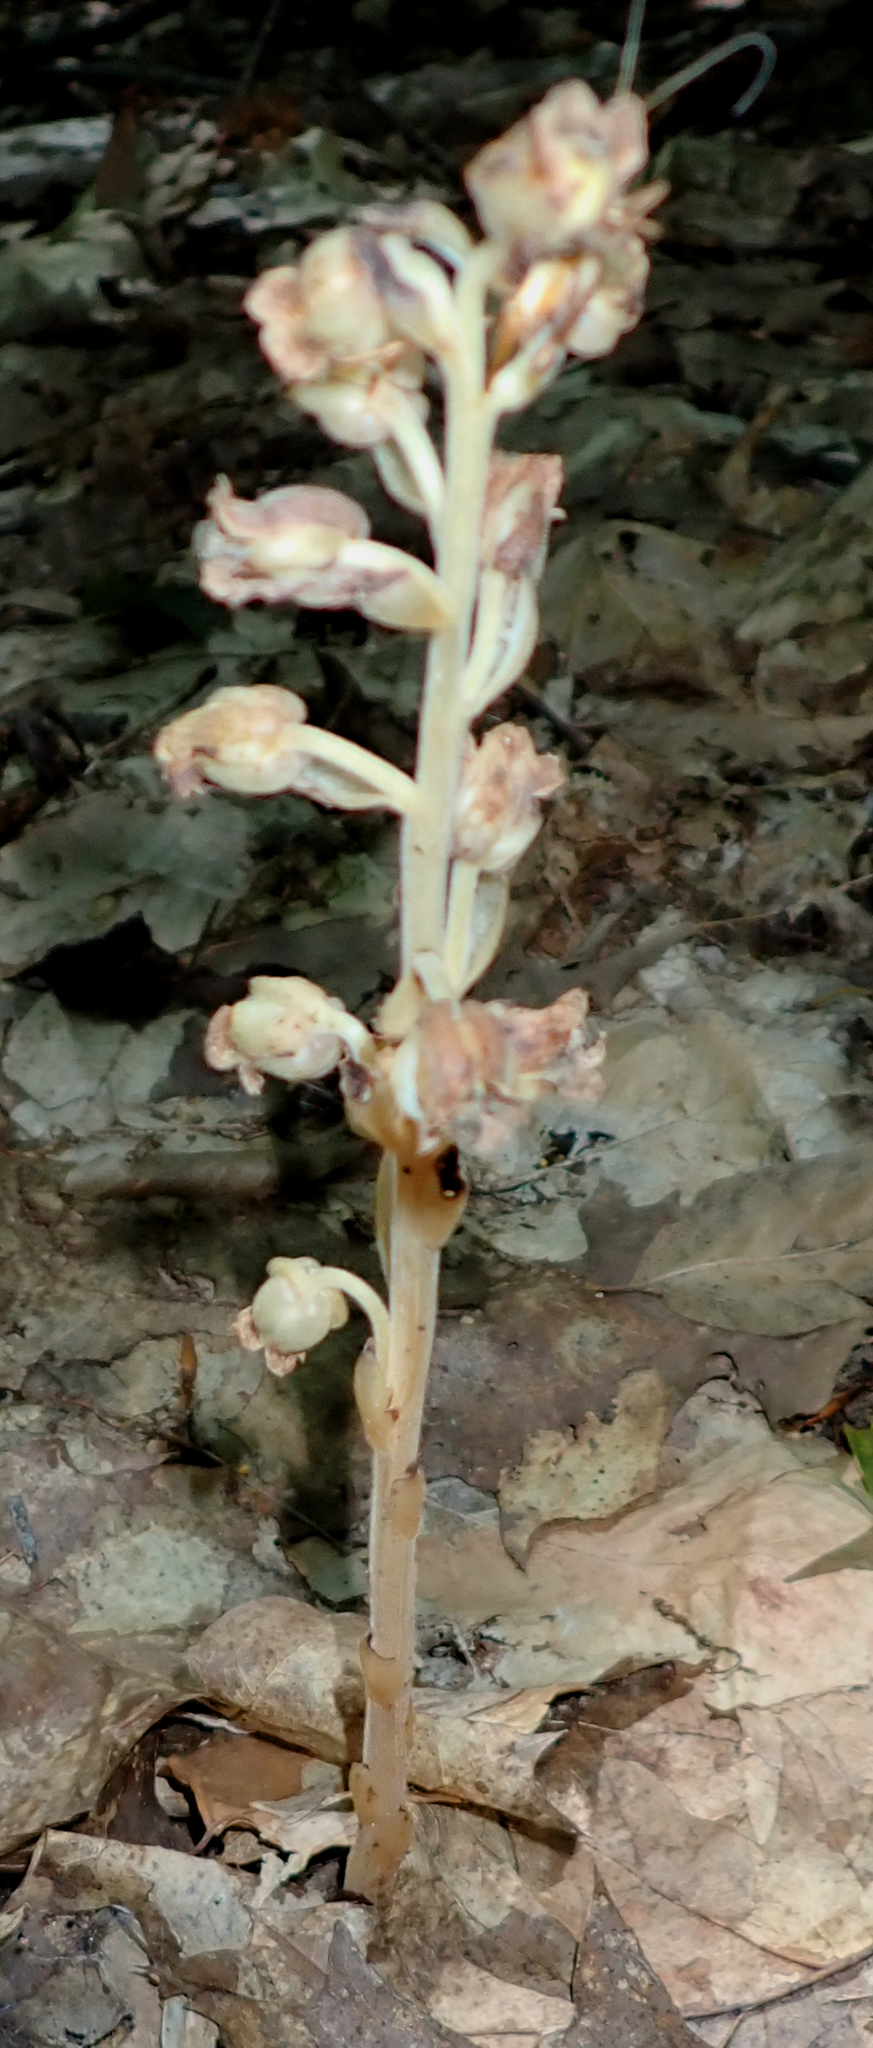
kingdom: Plantae
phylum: Tracheophyta
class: Magnoliopsida
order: Ericales
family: Ericaceae
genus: Hypopitys
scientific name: Hypopitys monotropa
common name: Yellow bird's-nest
